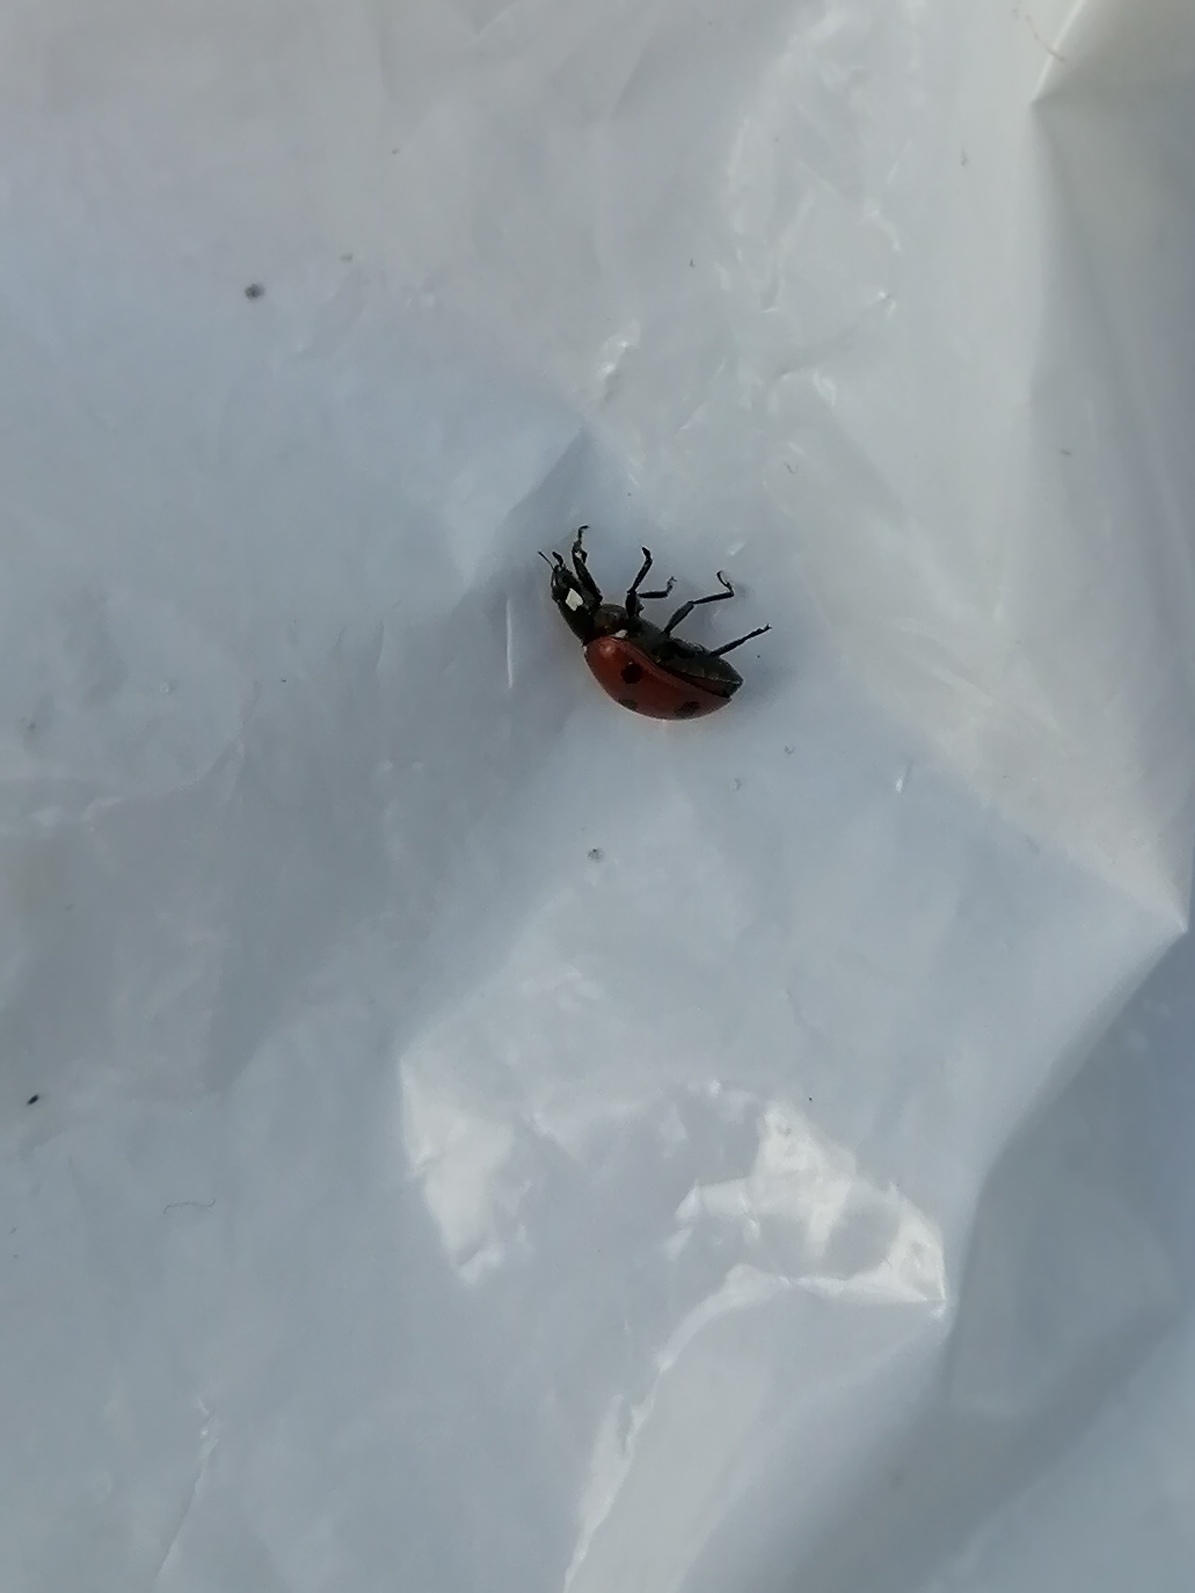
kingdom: Animalia
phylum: Arthropoda
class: Insecta
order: Coleoptera
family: Coccinellidae
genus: Coccinella
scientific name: Coccinella septempunctata
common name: Sevenspotted lady beetle
